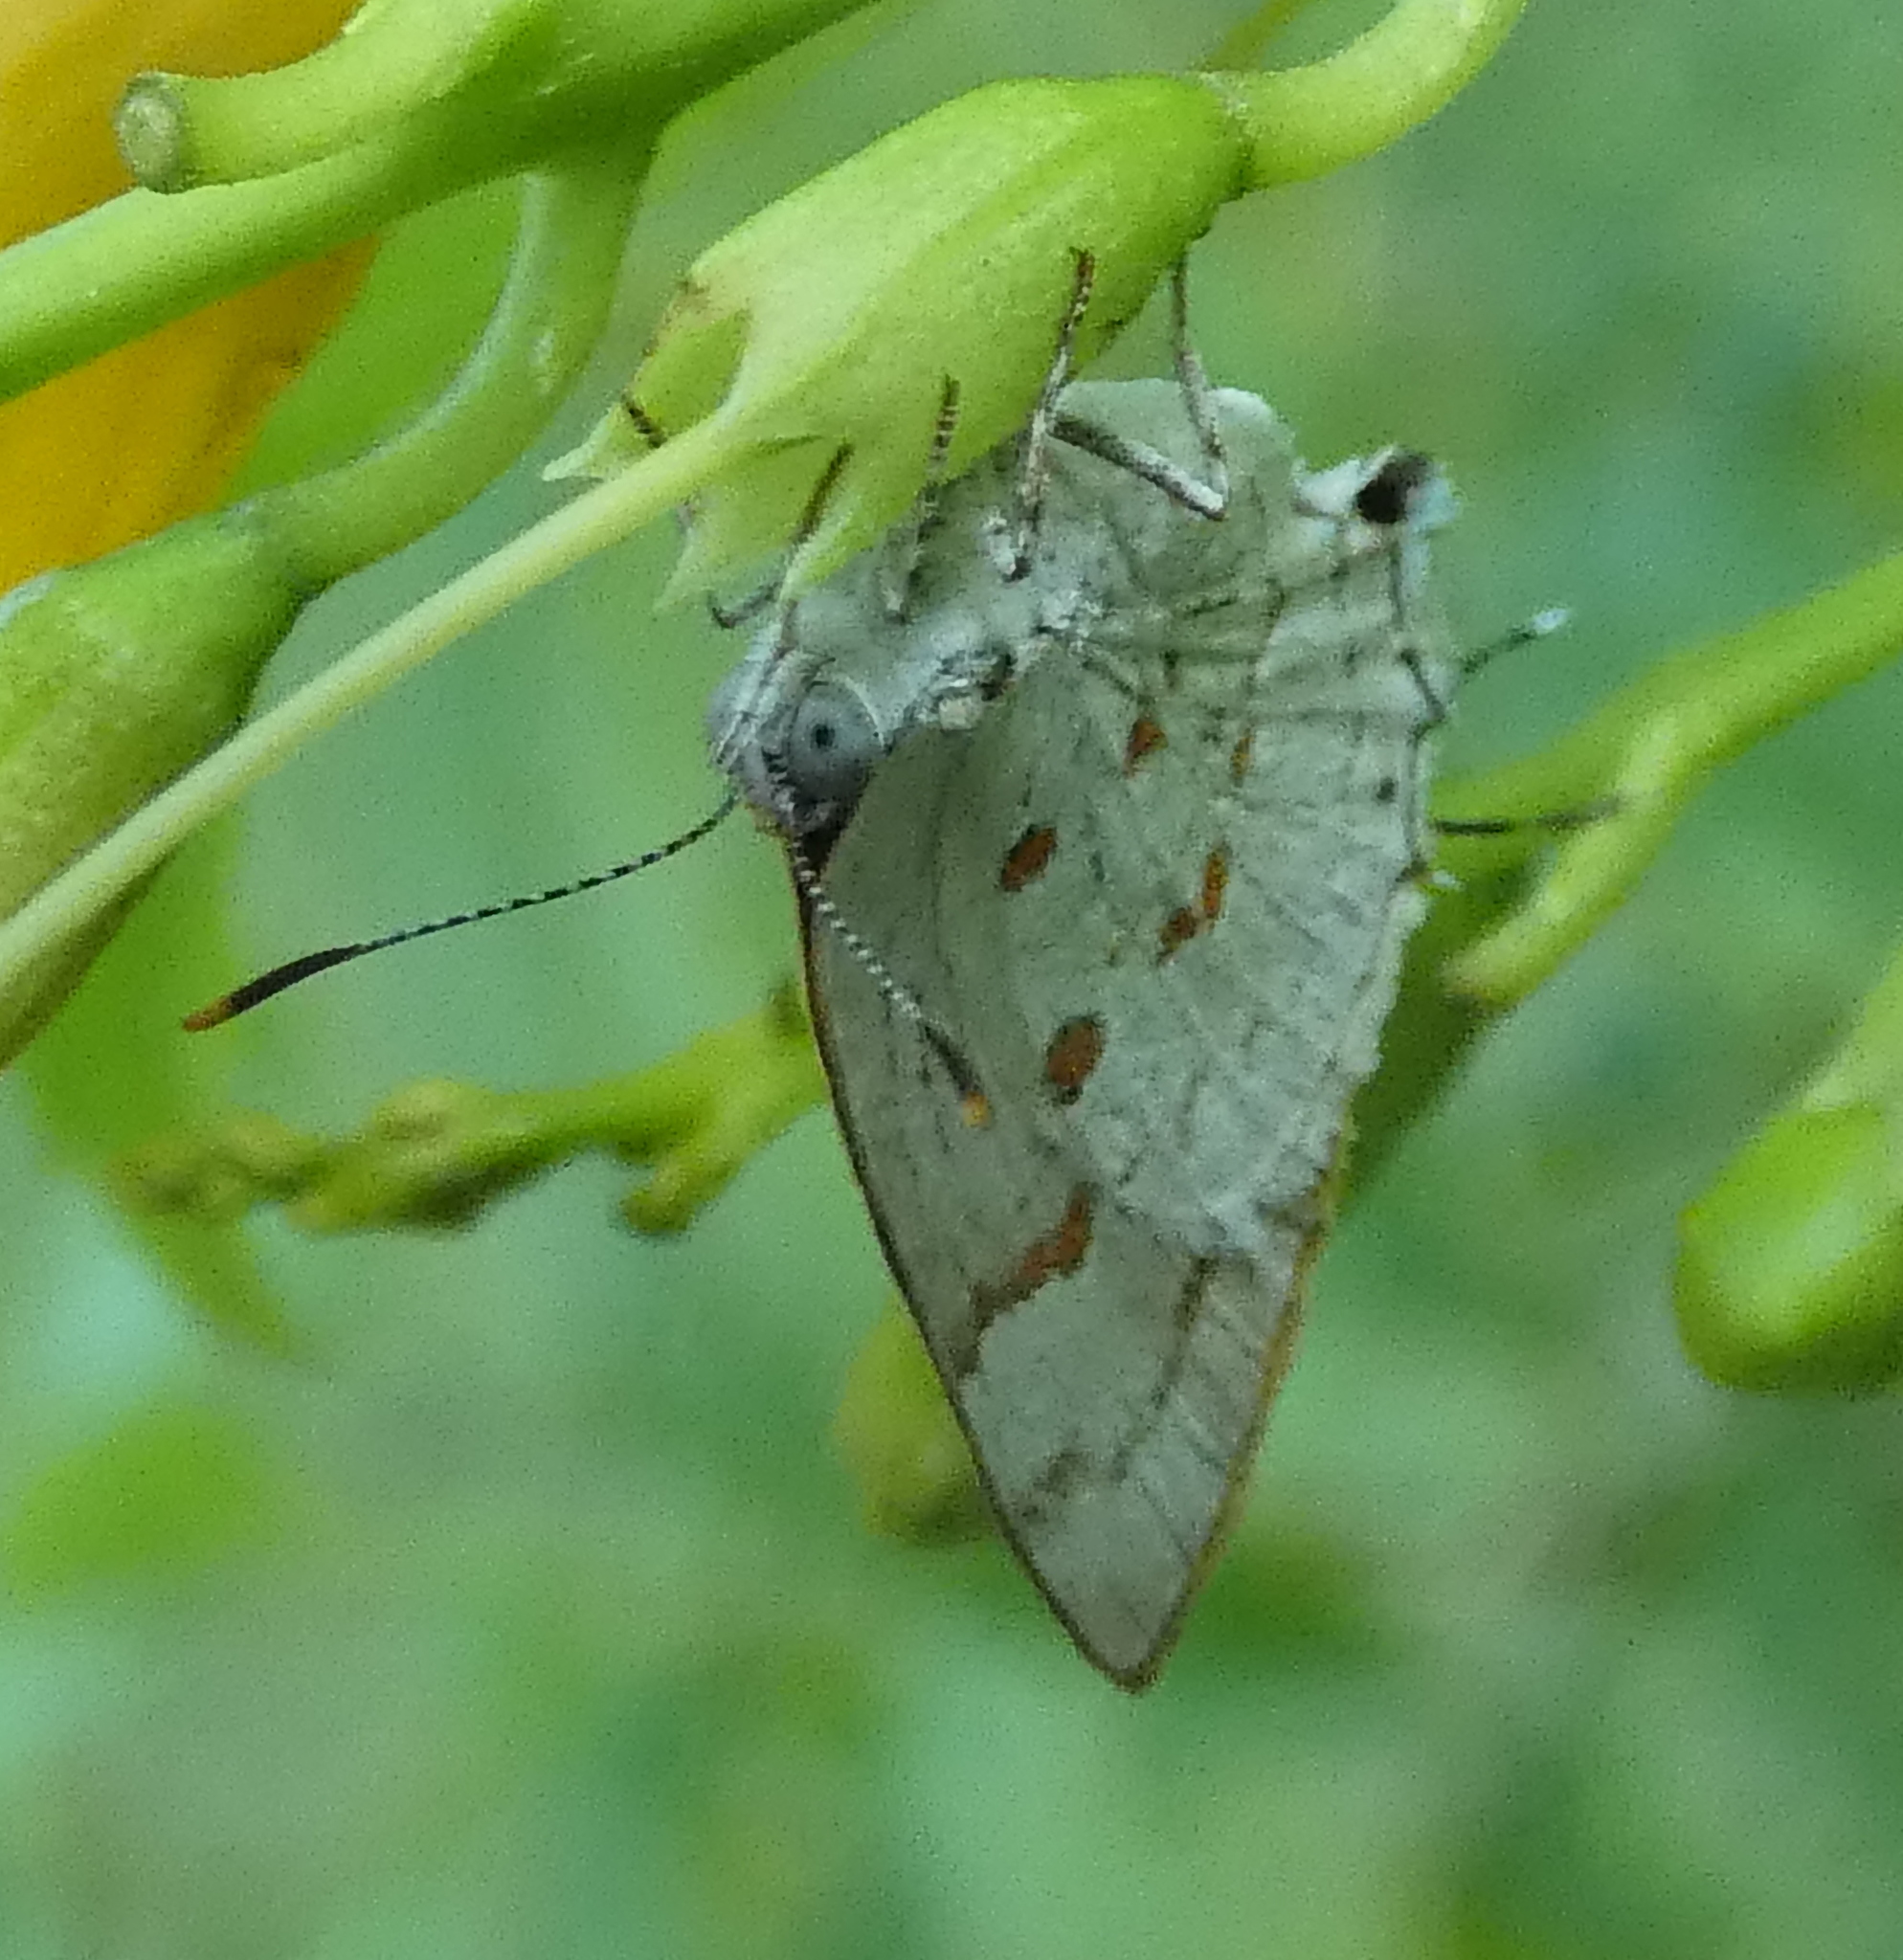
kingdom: Animalia
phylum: Arthropoda
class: Insecta
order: Lepidoptera
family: Lycaenidae
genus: Tmolus
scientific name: Tmolus echion
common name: Red-spotted hairstreak
